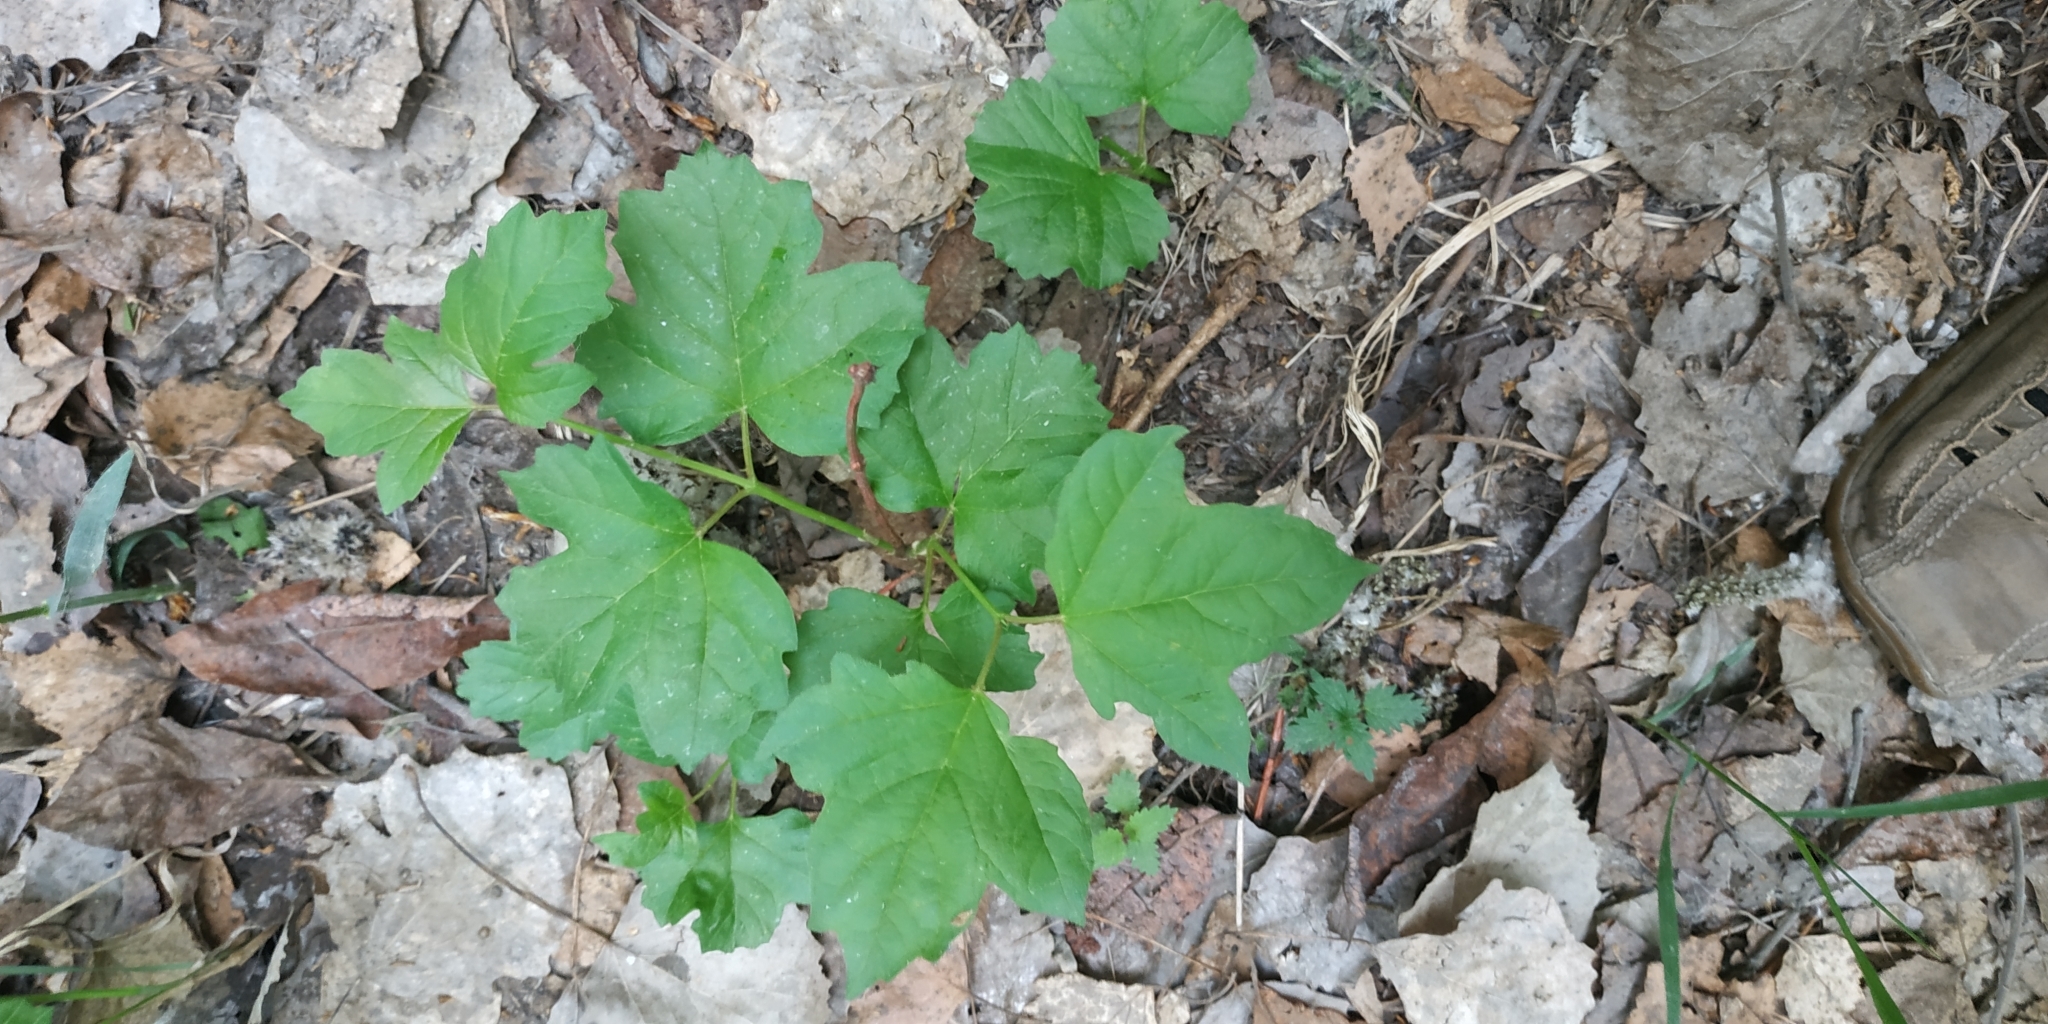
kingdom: Plantae
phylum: Tracheophyta
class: Magnoliopsida
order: Dipsacales
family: Viburnaceae
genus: Viburnum
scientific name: Viburnum opulus
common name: Guelder-rose
